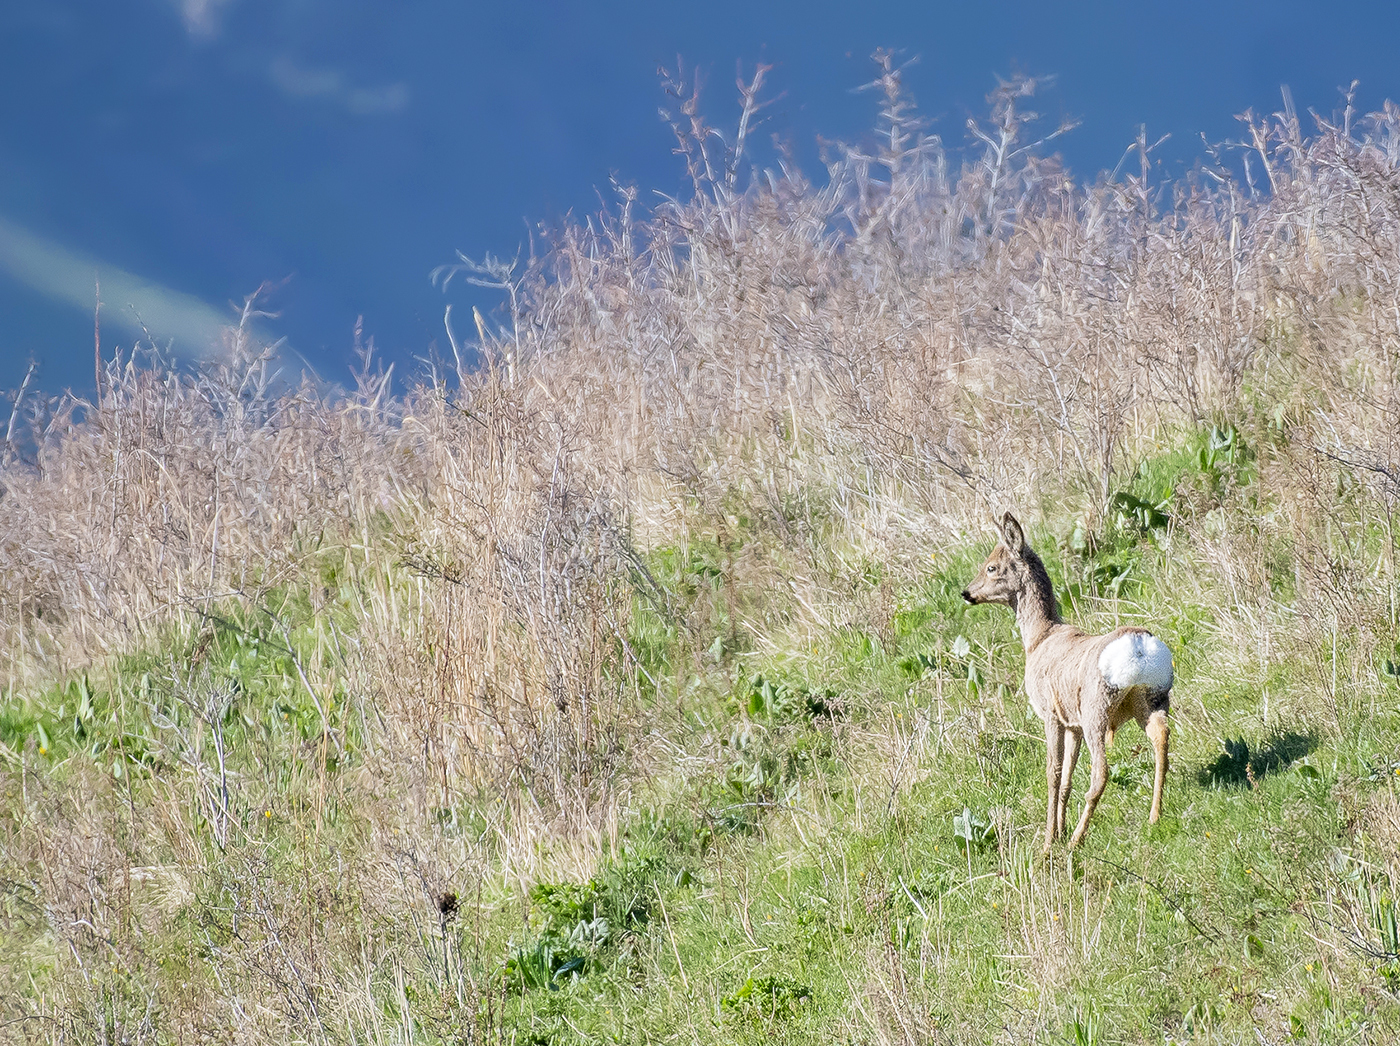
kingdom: Animalia
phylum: Chordata
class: Mammalia
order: Artiodactyla
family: Cervidae
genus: Capreolus
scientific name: Capreolus pygargus
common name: Siberian roe
